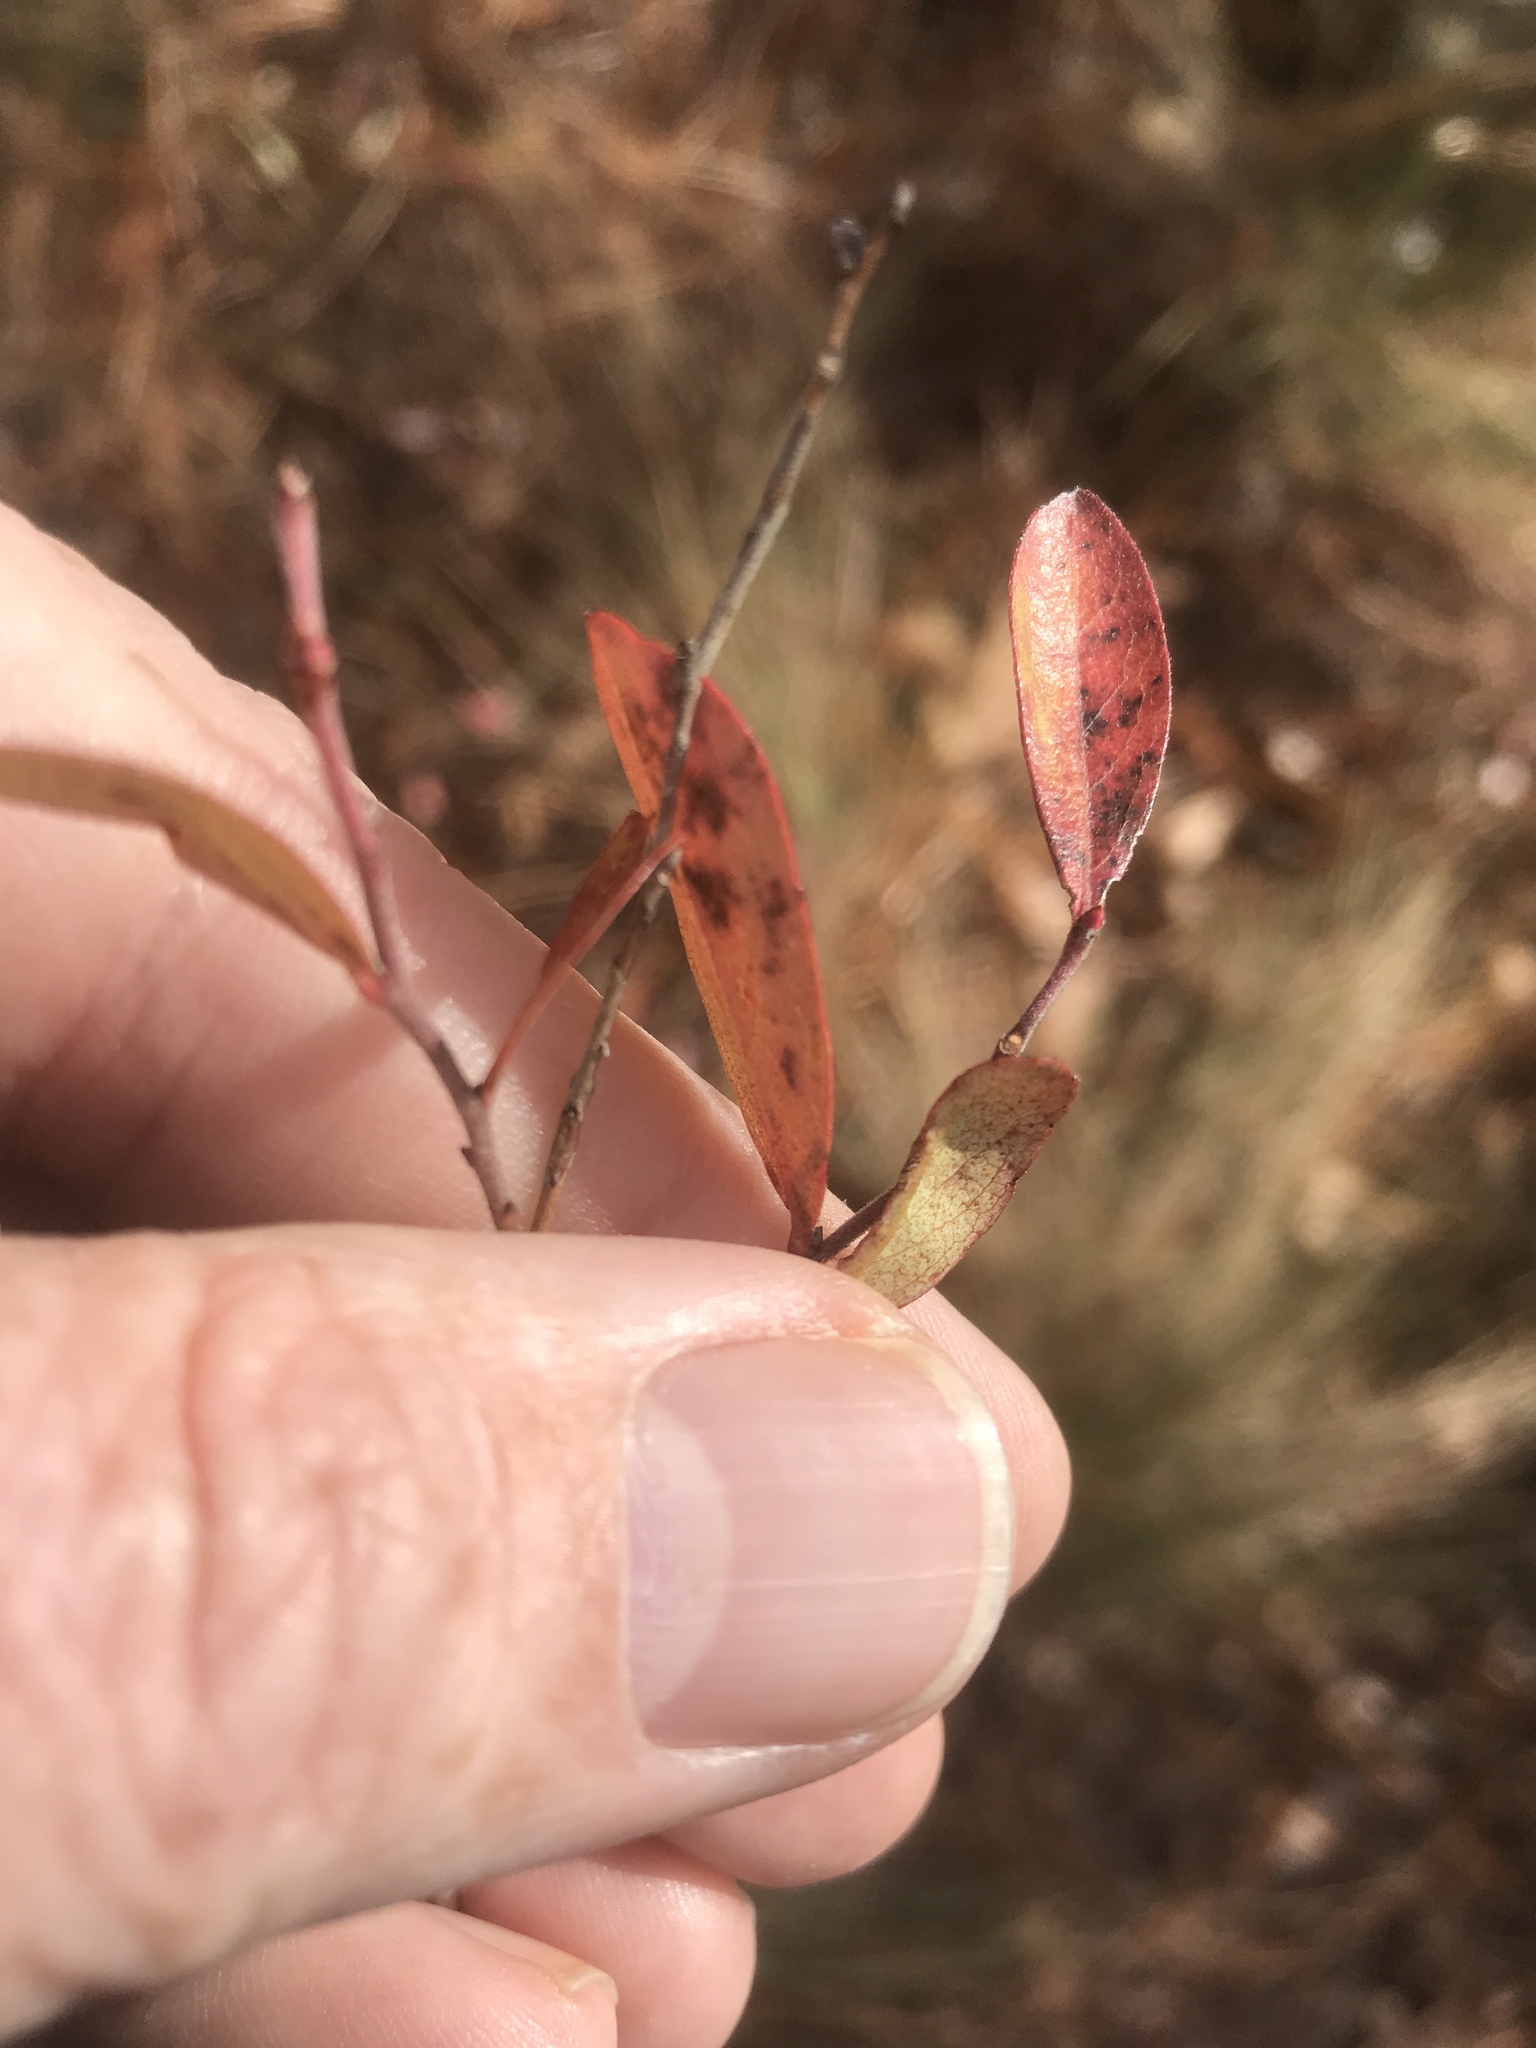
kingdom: Plantae
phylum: Tracheophyta
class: Magnoliopsida
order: Ericales
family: Ericaceae
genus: Gaylussacia
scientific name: Gaylussacia dumosa
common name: Dwarf huckleberry
